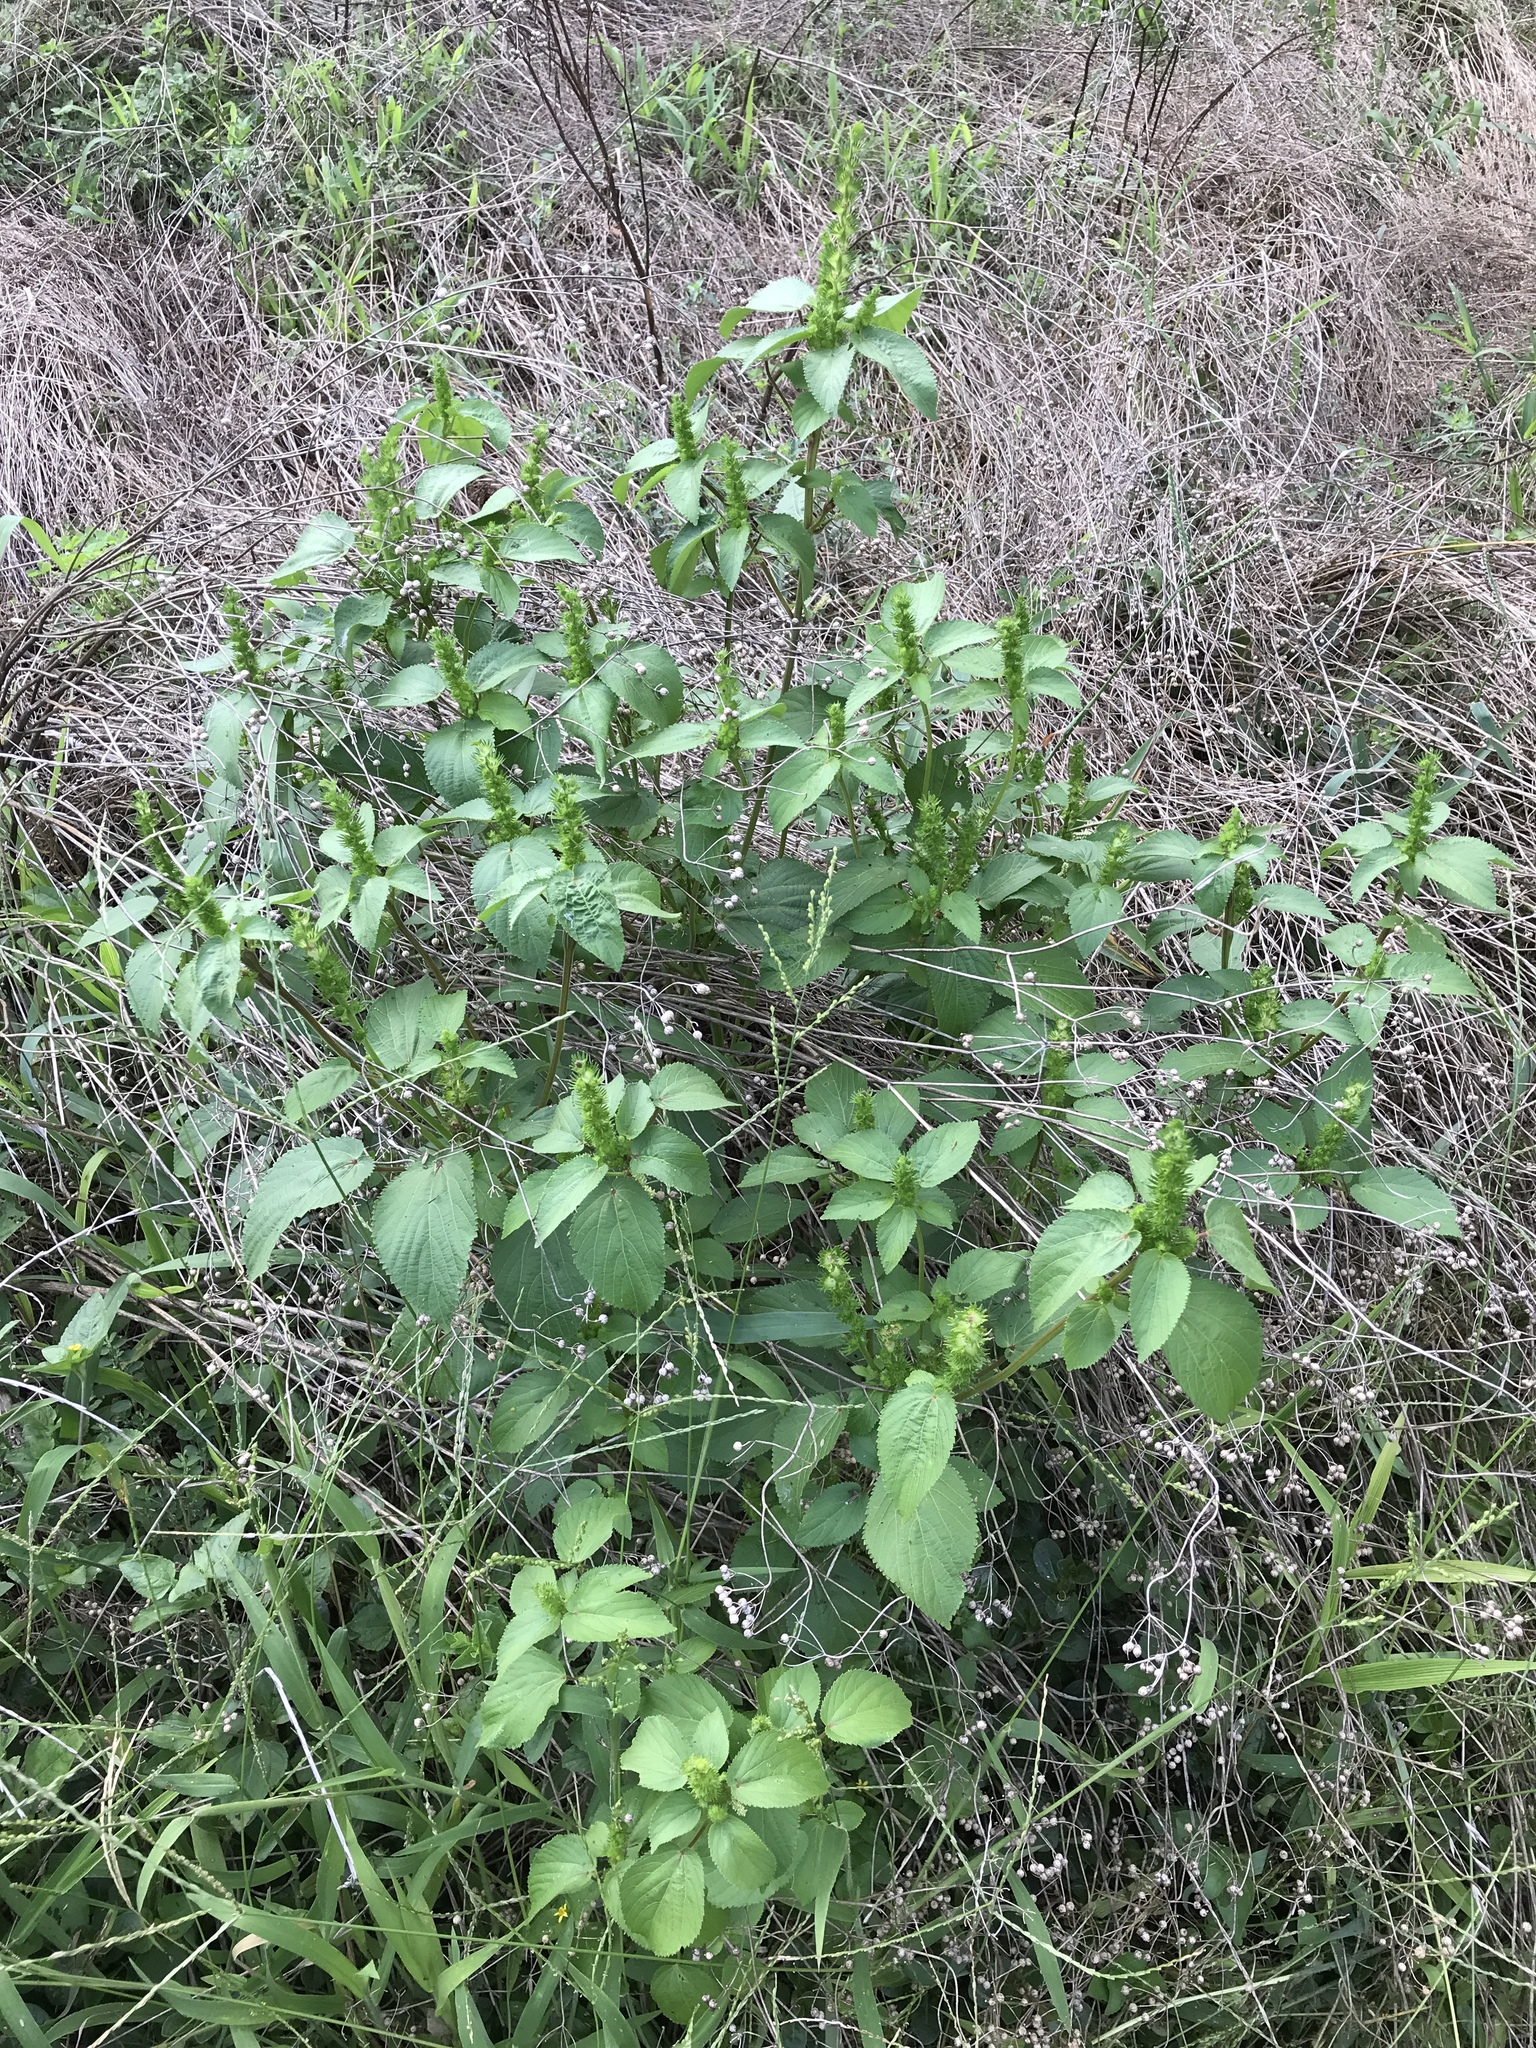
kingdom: Plantae
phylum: Tracheophyta
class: Magnoliopsida
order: Malpighiales
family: Euphorbiaceae
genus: Acalypha
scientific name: Acalypha ostryifolia
